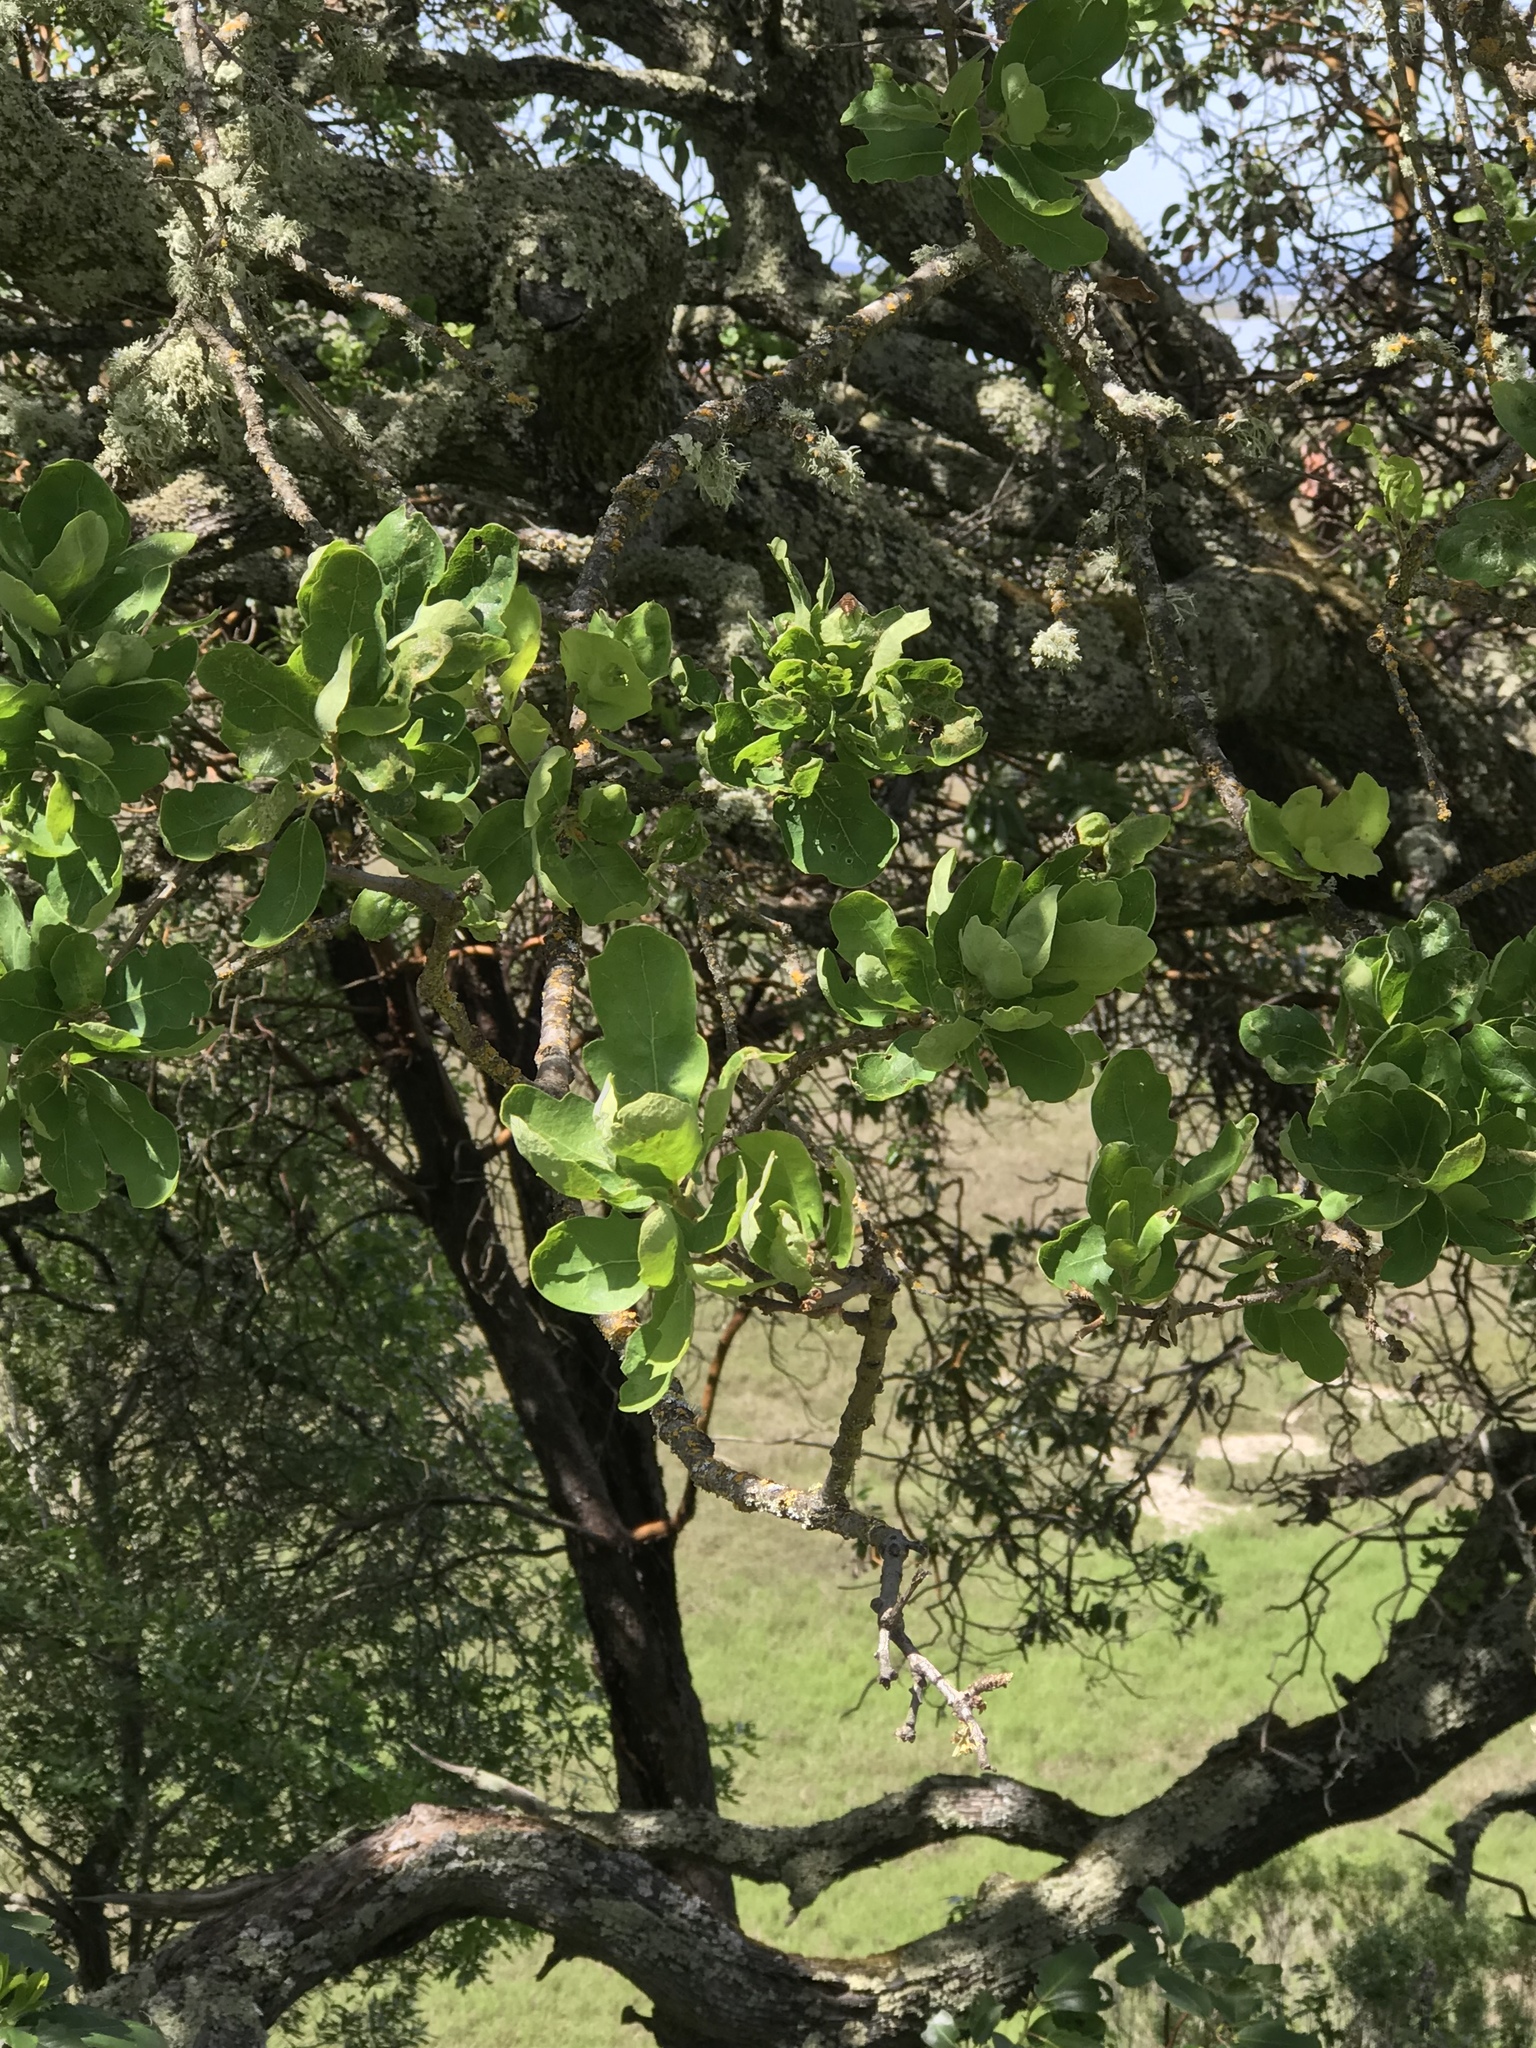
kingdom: Plantae
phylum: Tracheophyta
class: Magnoliopsida
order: Fagales
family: Fagaceae
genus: Quercus
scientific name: Quercus douglasii
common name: Blue oak
